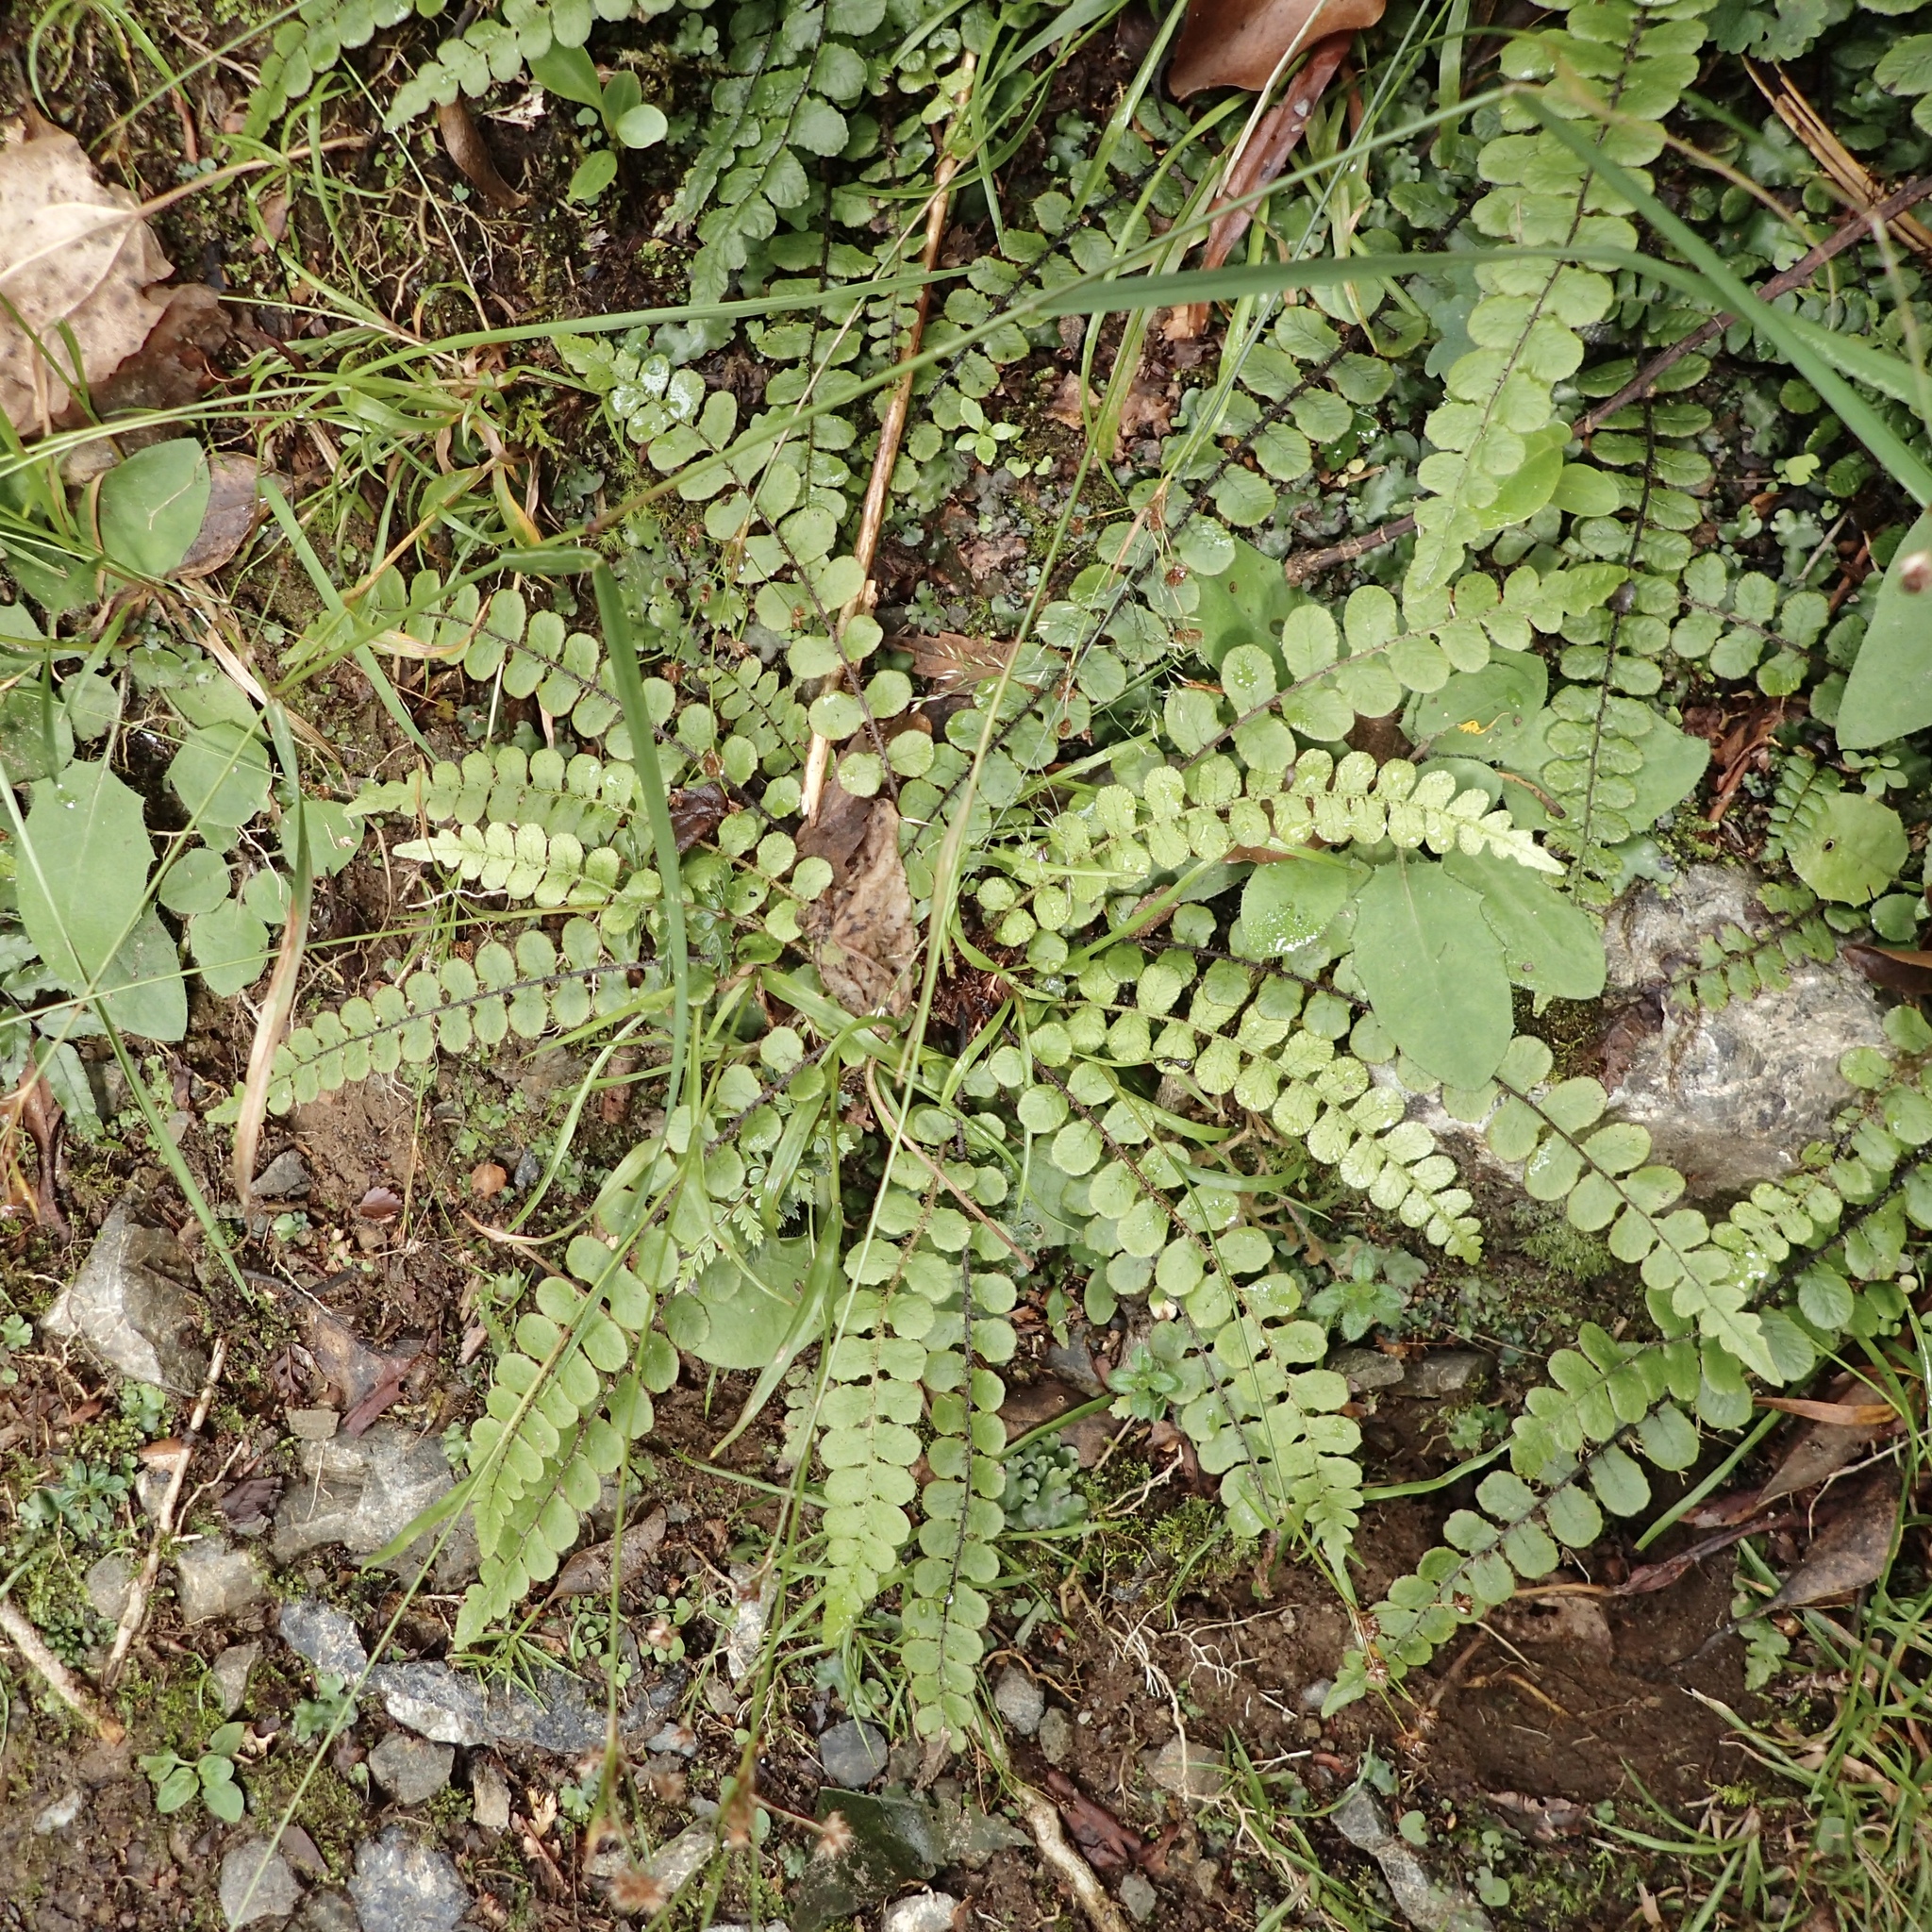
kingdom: Plantae
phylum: Tracheophyta
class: Polypodiopsida
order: Polypodiales
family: Blechnaceae
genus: Cranfillia
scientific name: Cranfillia fluviatilis
